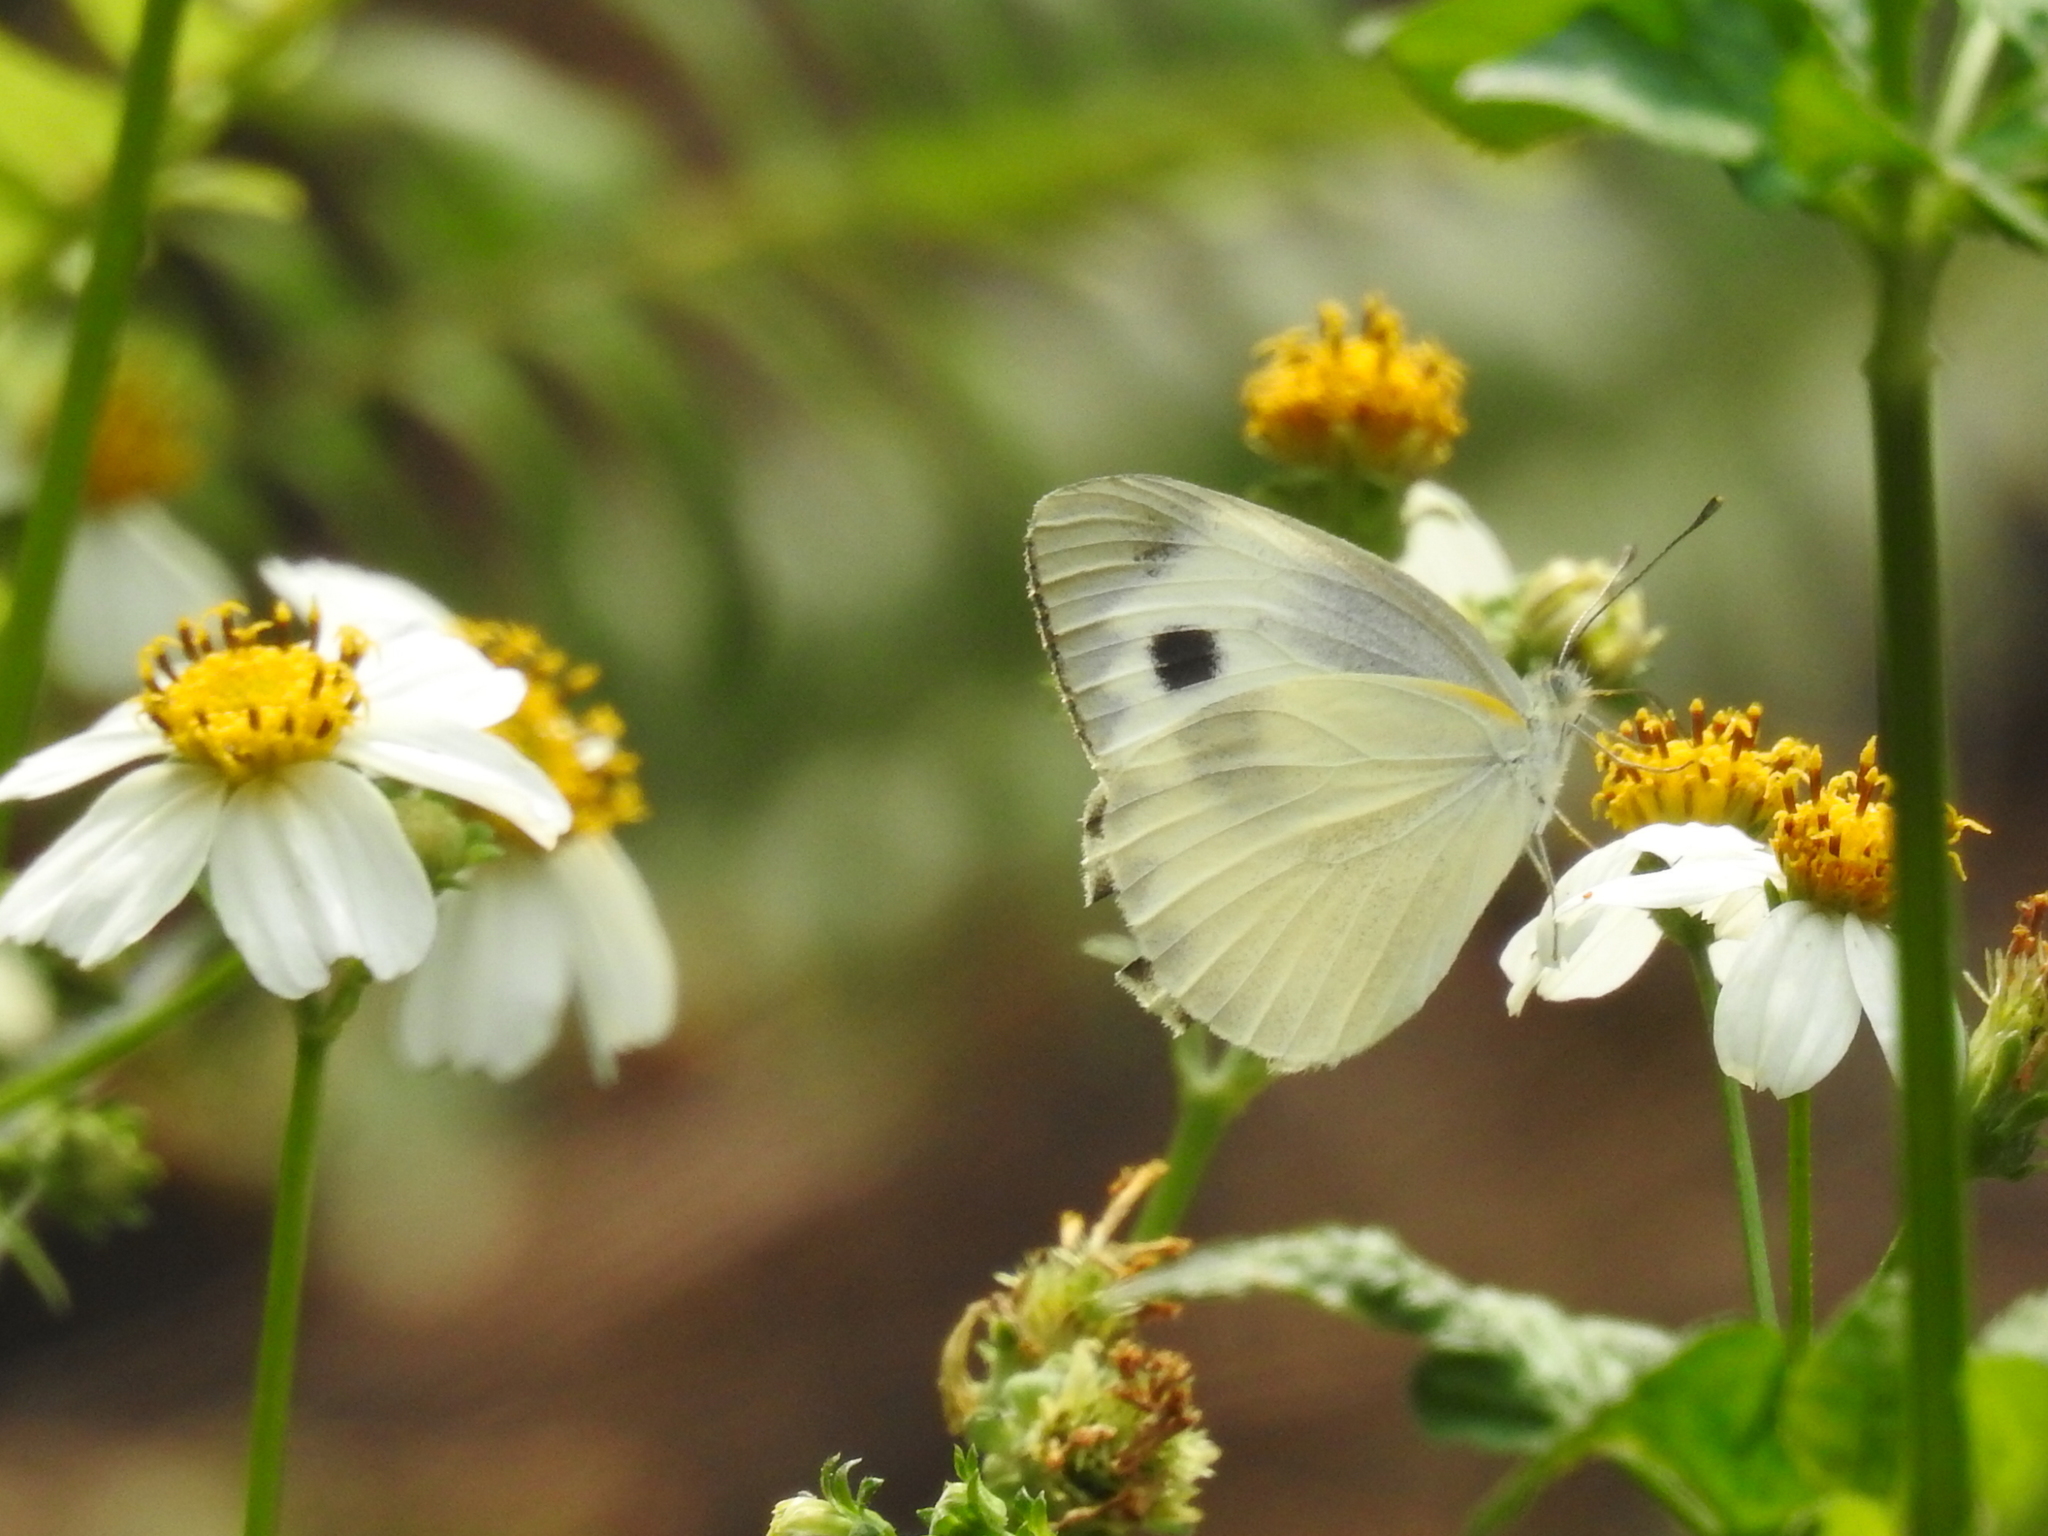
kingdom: Animalia
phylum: Arthropoda
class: Insecta
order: Lepidoptera
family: Pieridae
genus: Pieris
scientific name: Pieris canidia
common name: Indian cabbage white
